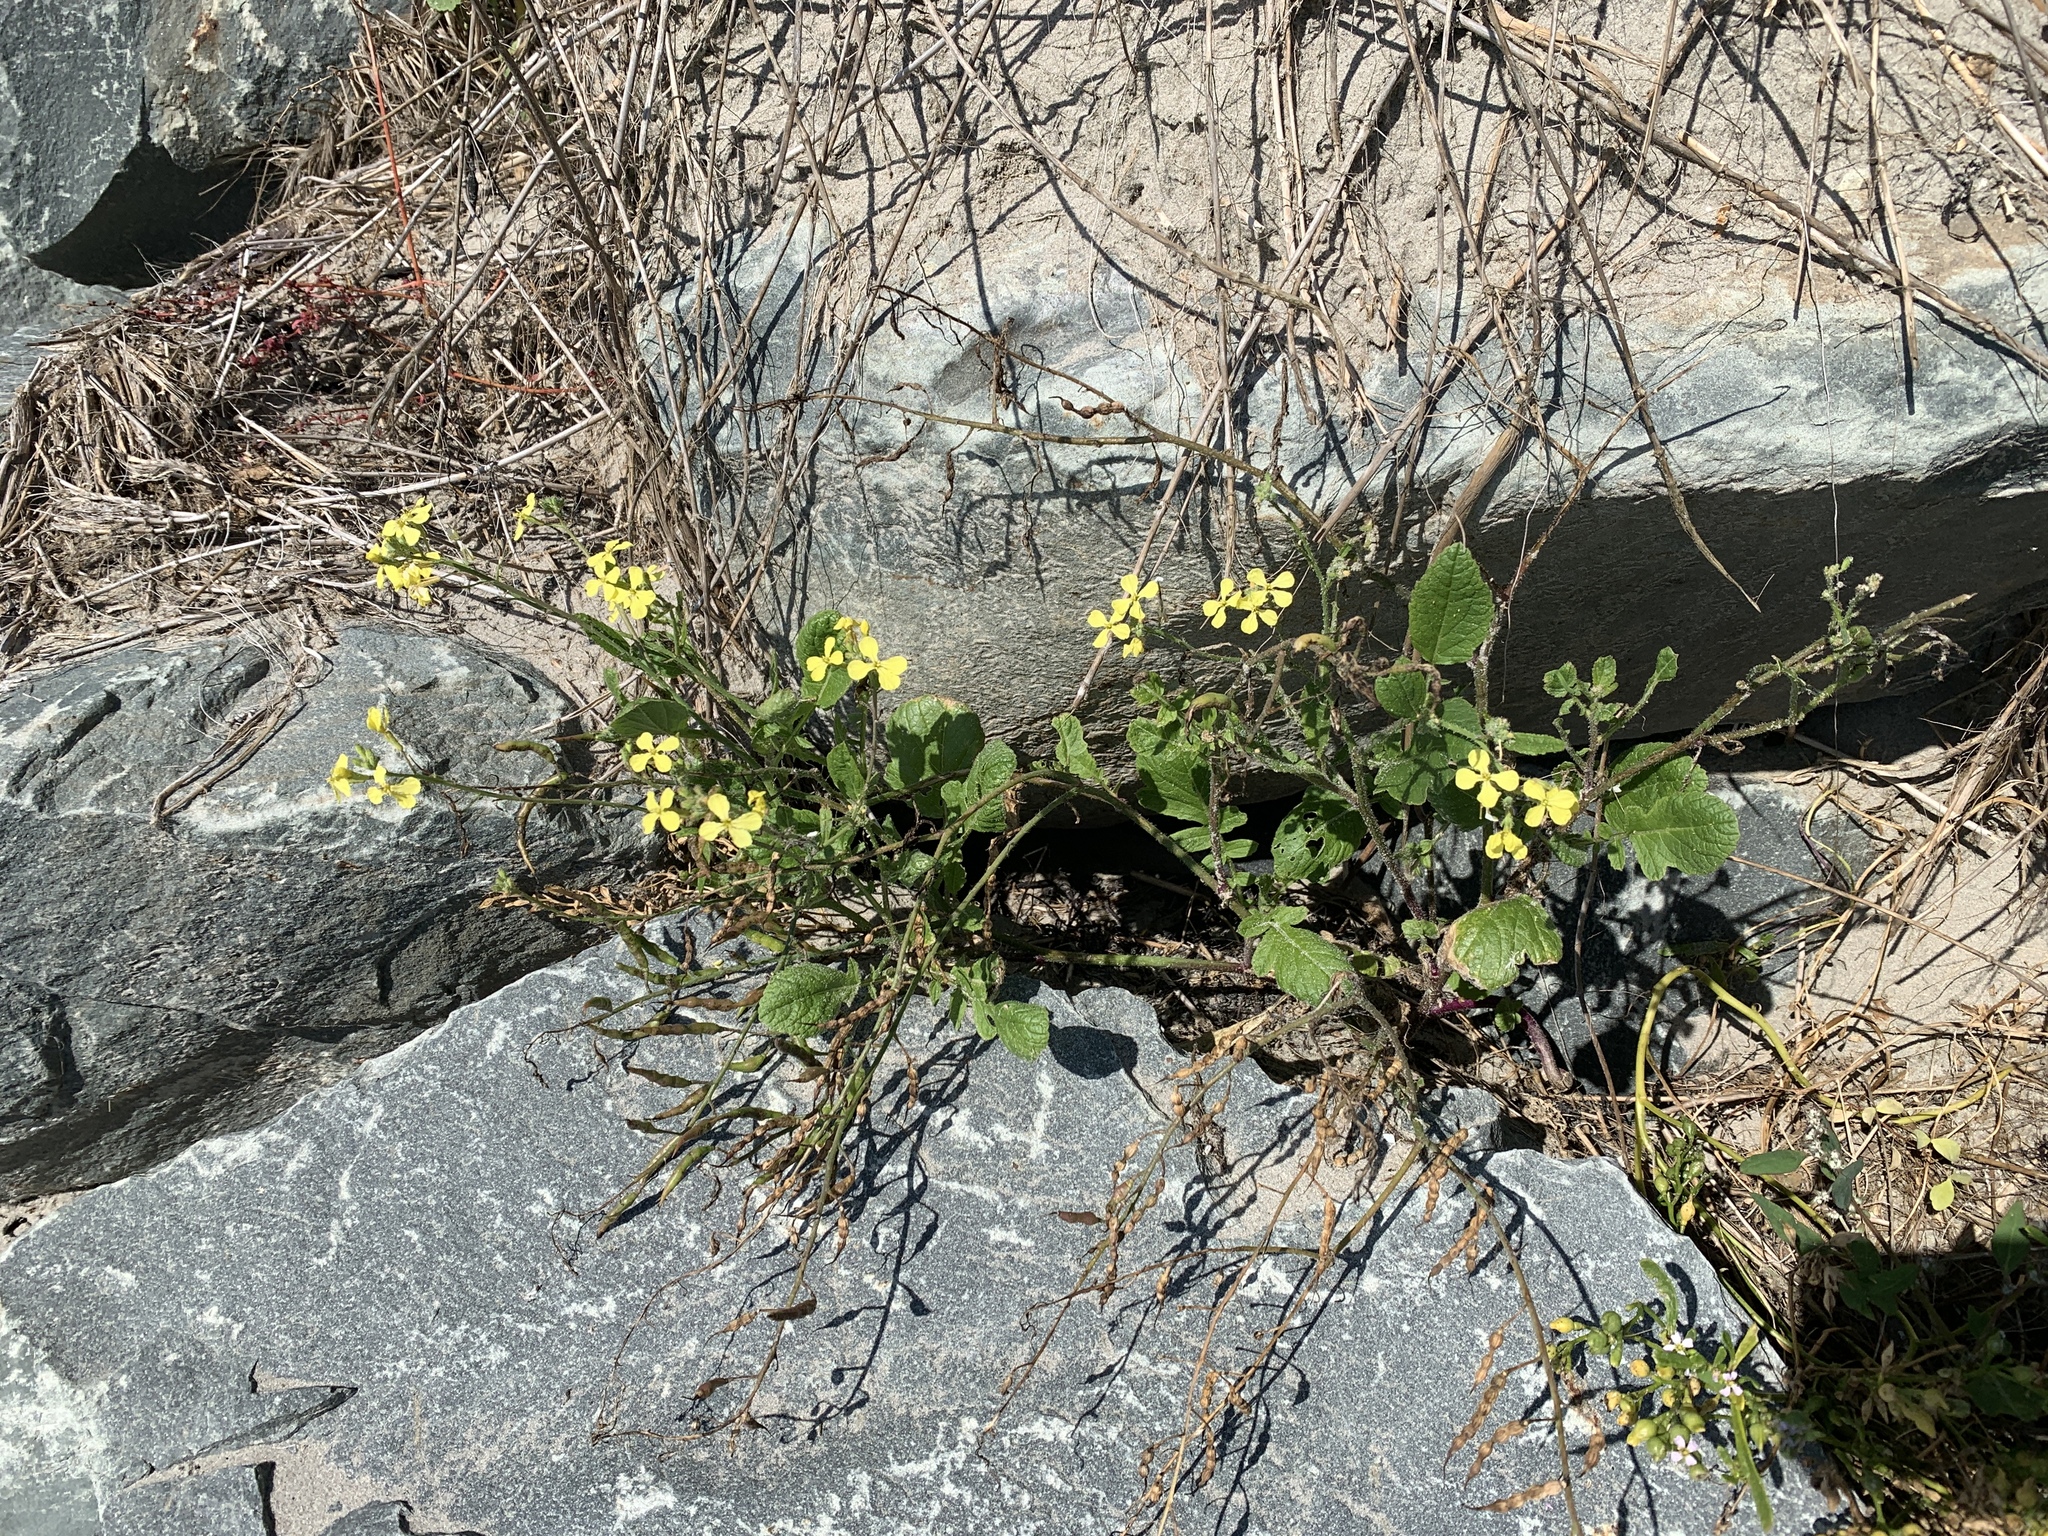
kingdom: Plantae
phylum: Tracheophyta
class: Magnoliopsida
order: Brassicales
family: Brassicaceae
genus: Raphanus
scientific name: Raphanus raphanistrum
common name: Wild radish
